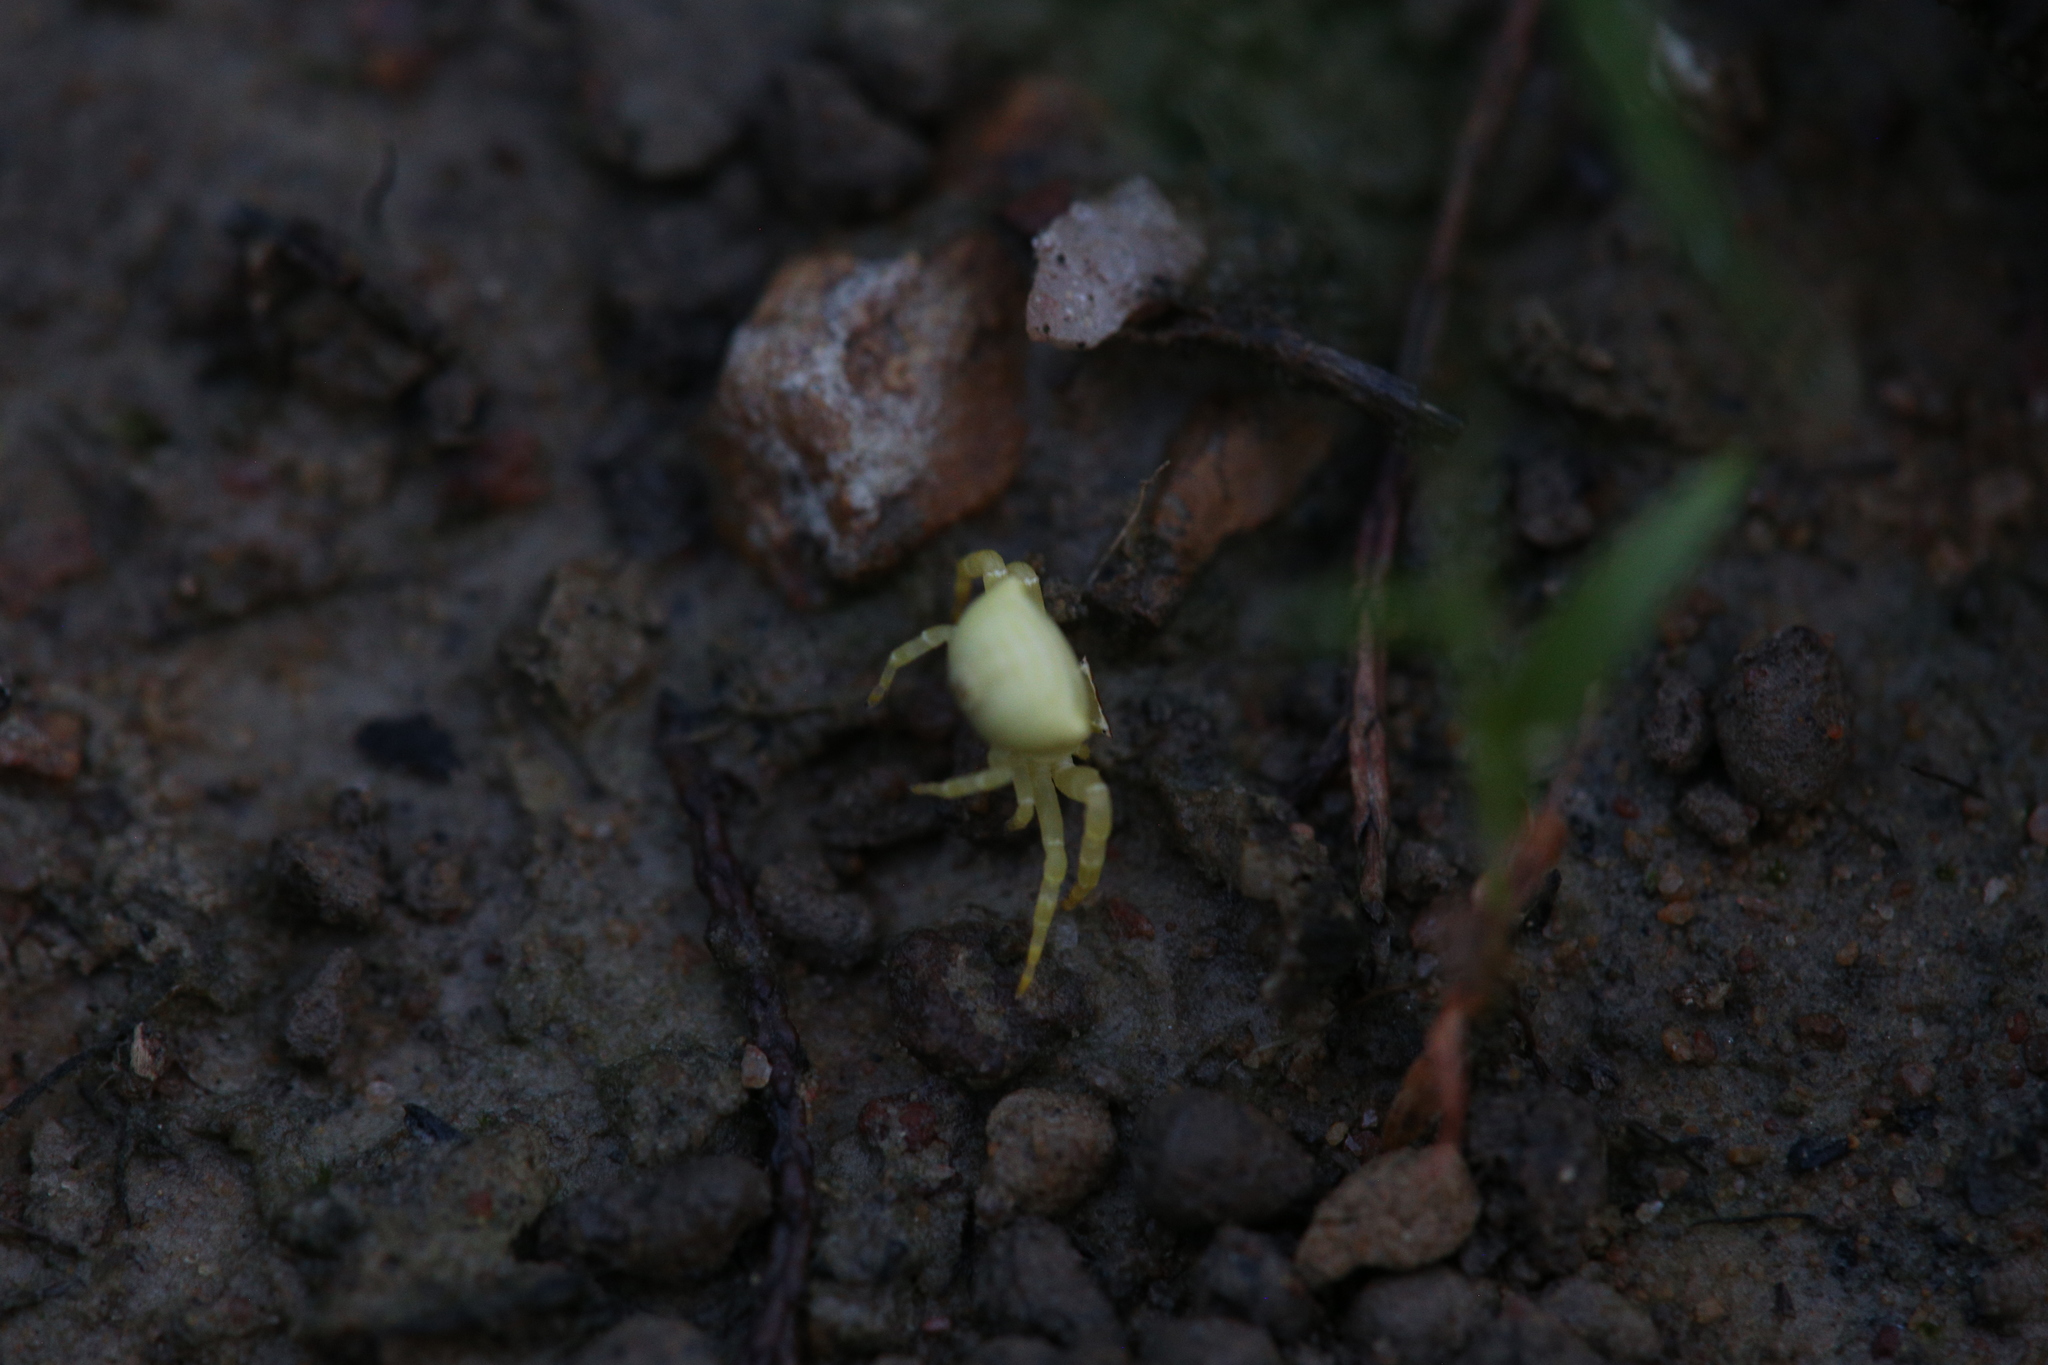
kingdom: Animalia
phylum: Arthropoda
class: Arachnida
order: Araneae
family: Thomisidae
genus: Thomisus
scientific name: Thomisus spectabilis
